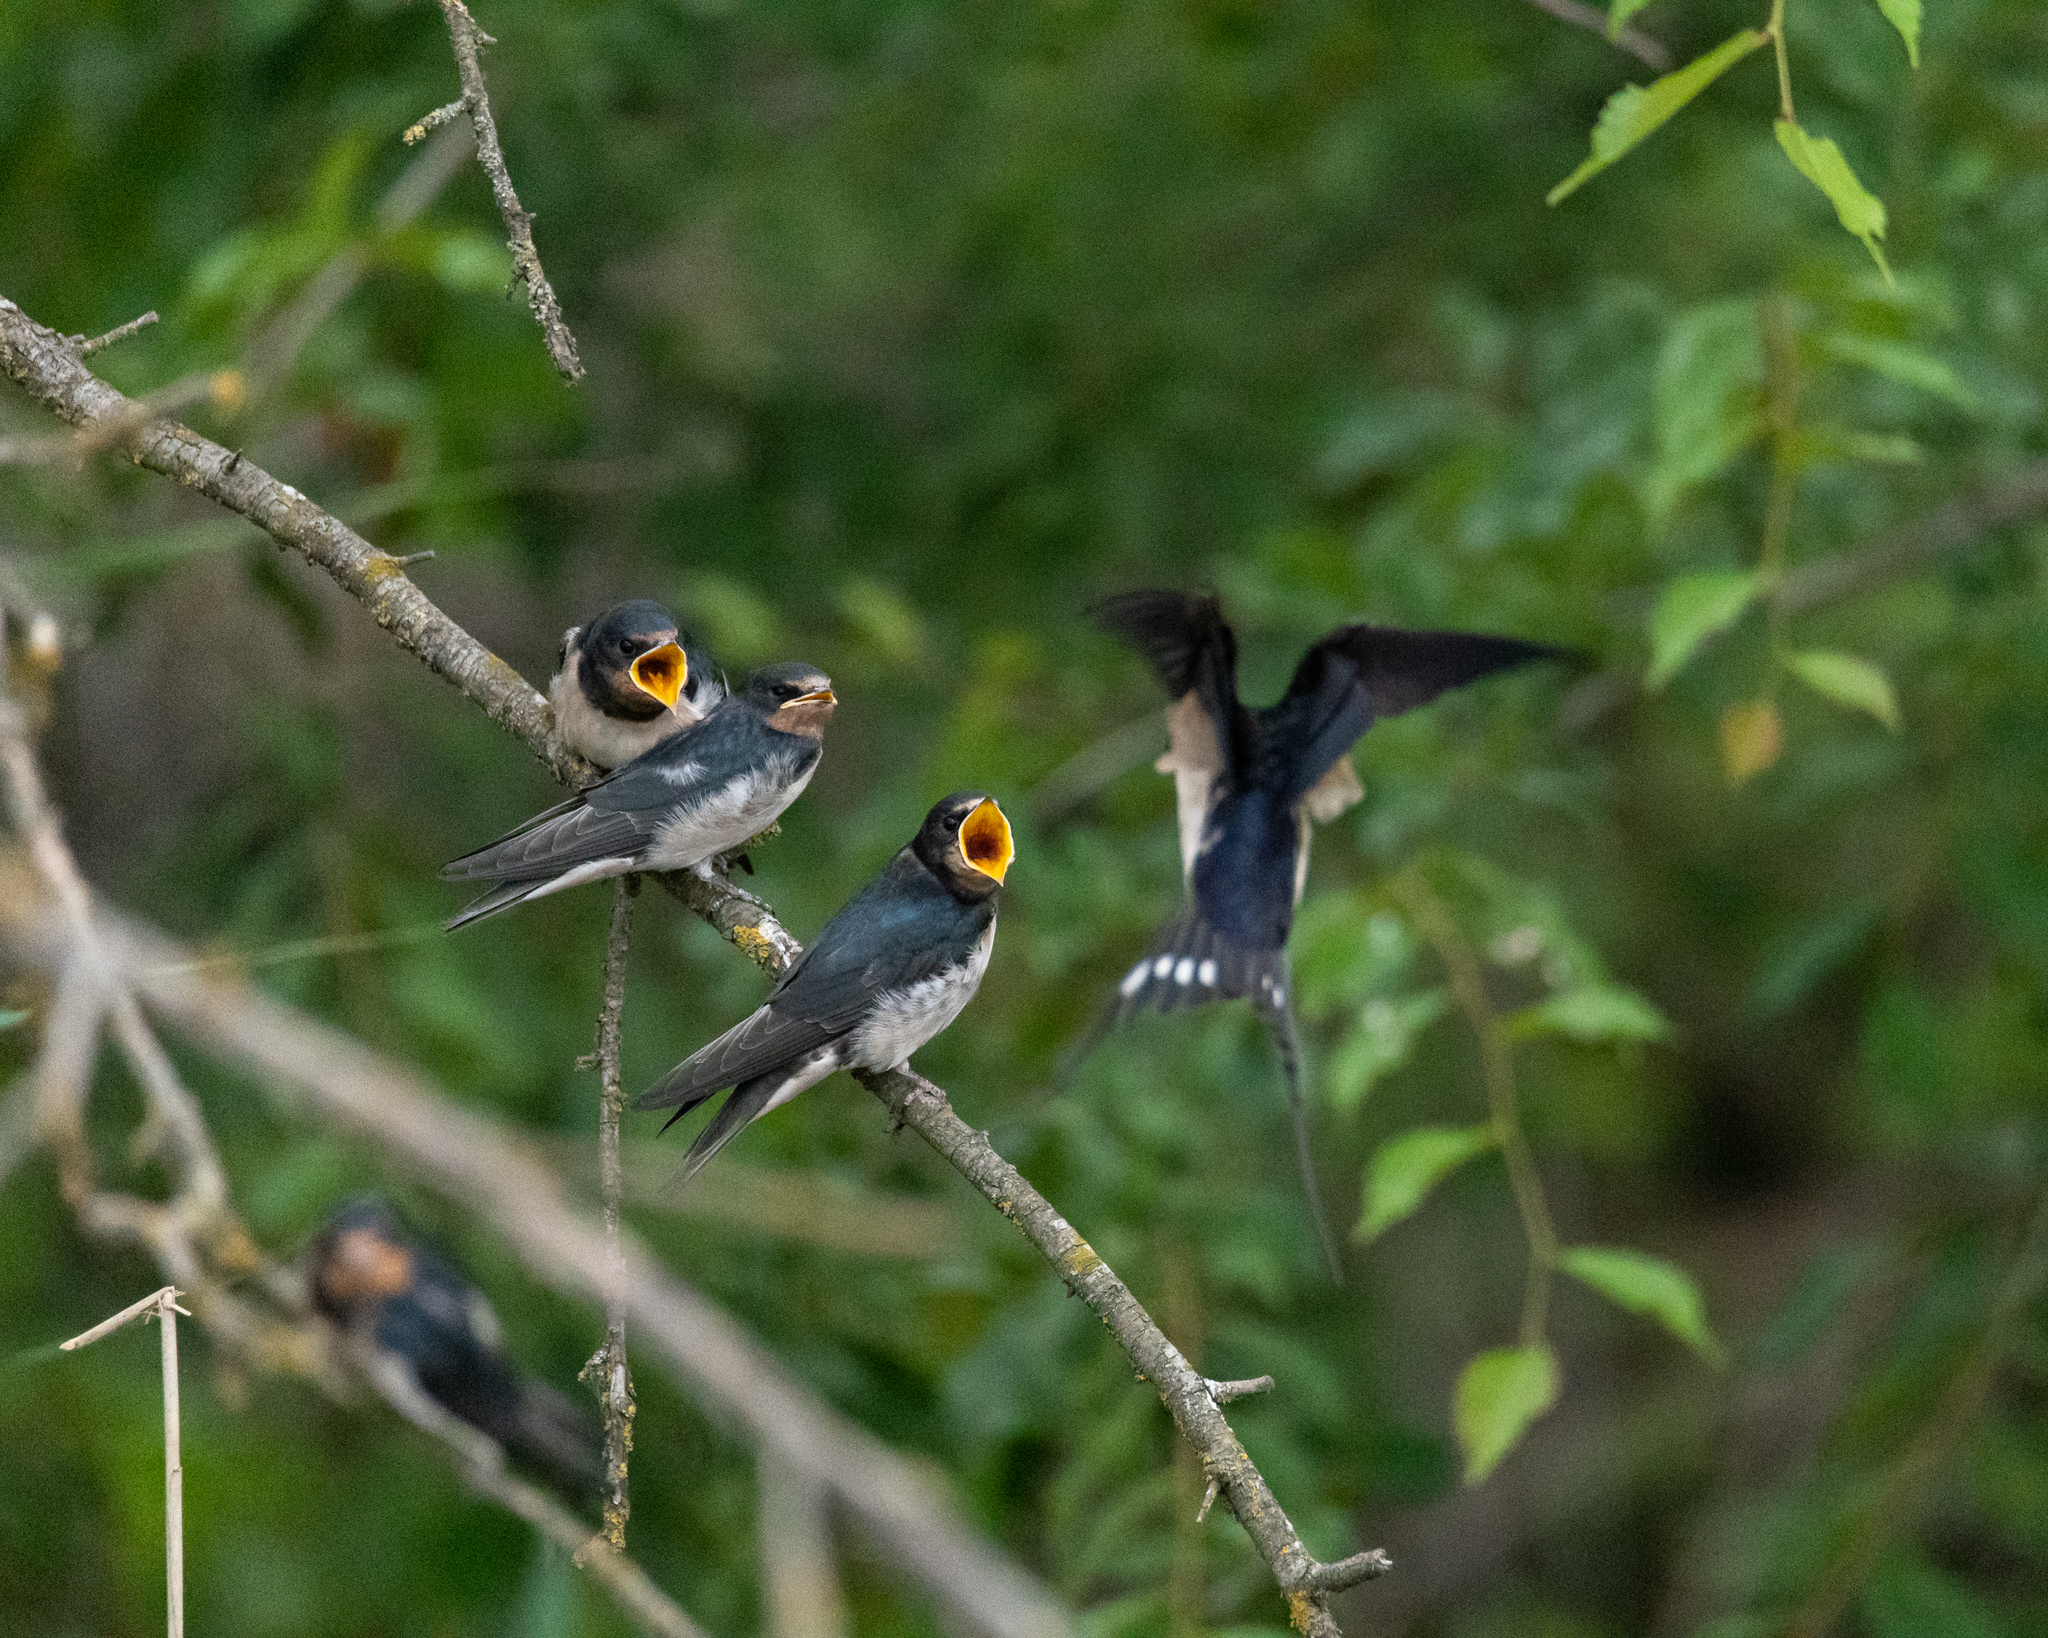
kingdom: Animalia
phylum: Chordata
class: Aves
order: Passeriformes
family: Hirundinidae
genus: Hirundo
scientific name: Hirundo rustica
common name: Barn swallow
